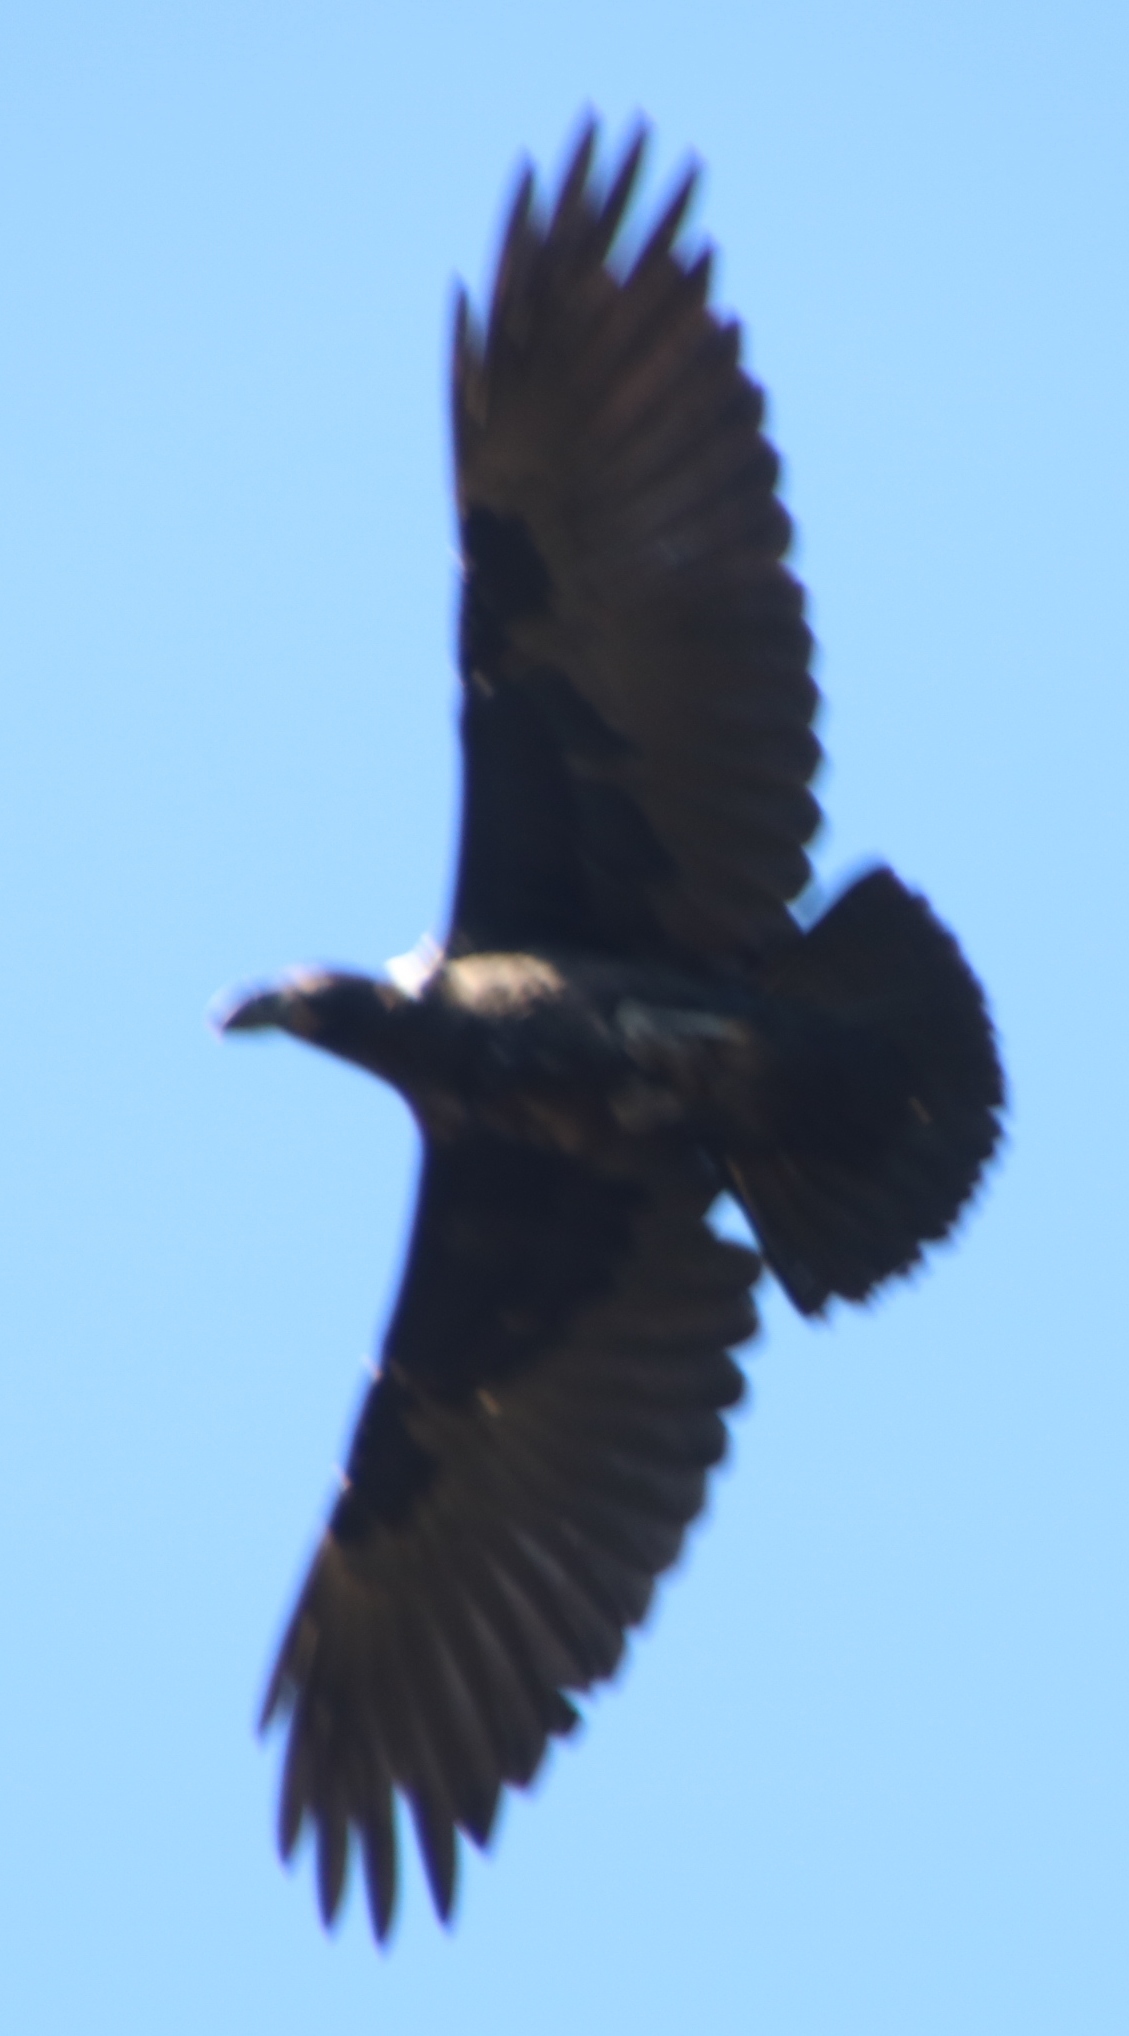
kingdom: Animalia
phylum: Chordata
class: Aves
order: Passeriformes
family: Corvidae
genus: Corvus
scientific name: Corvus albicollis
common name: White-necked raven
